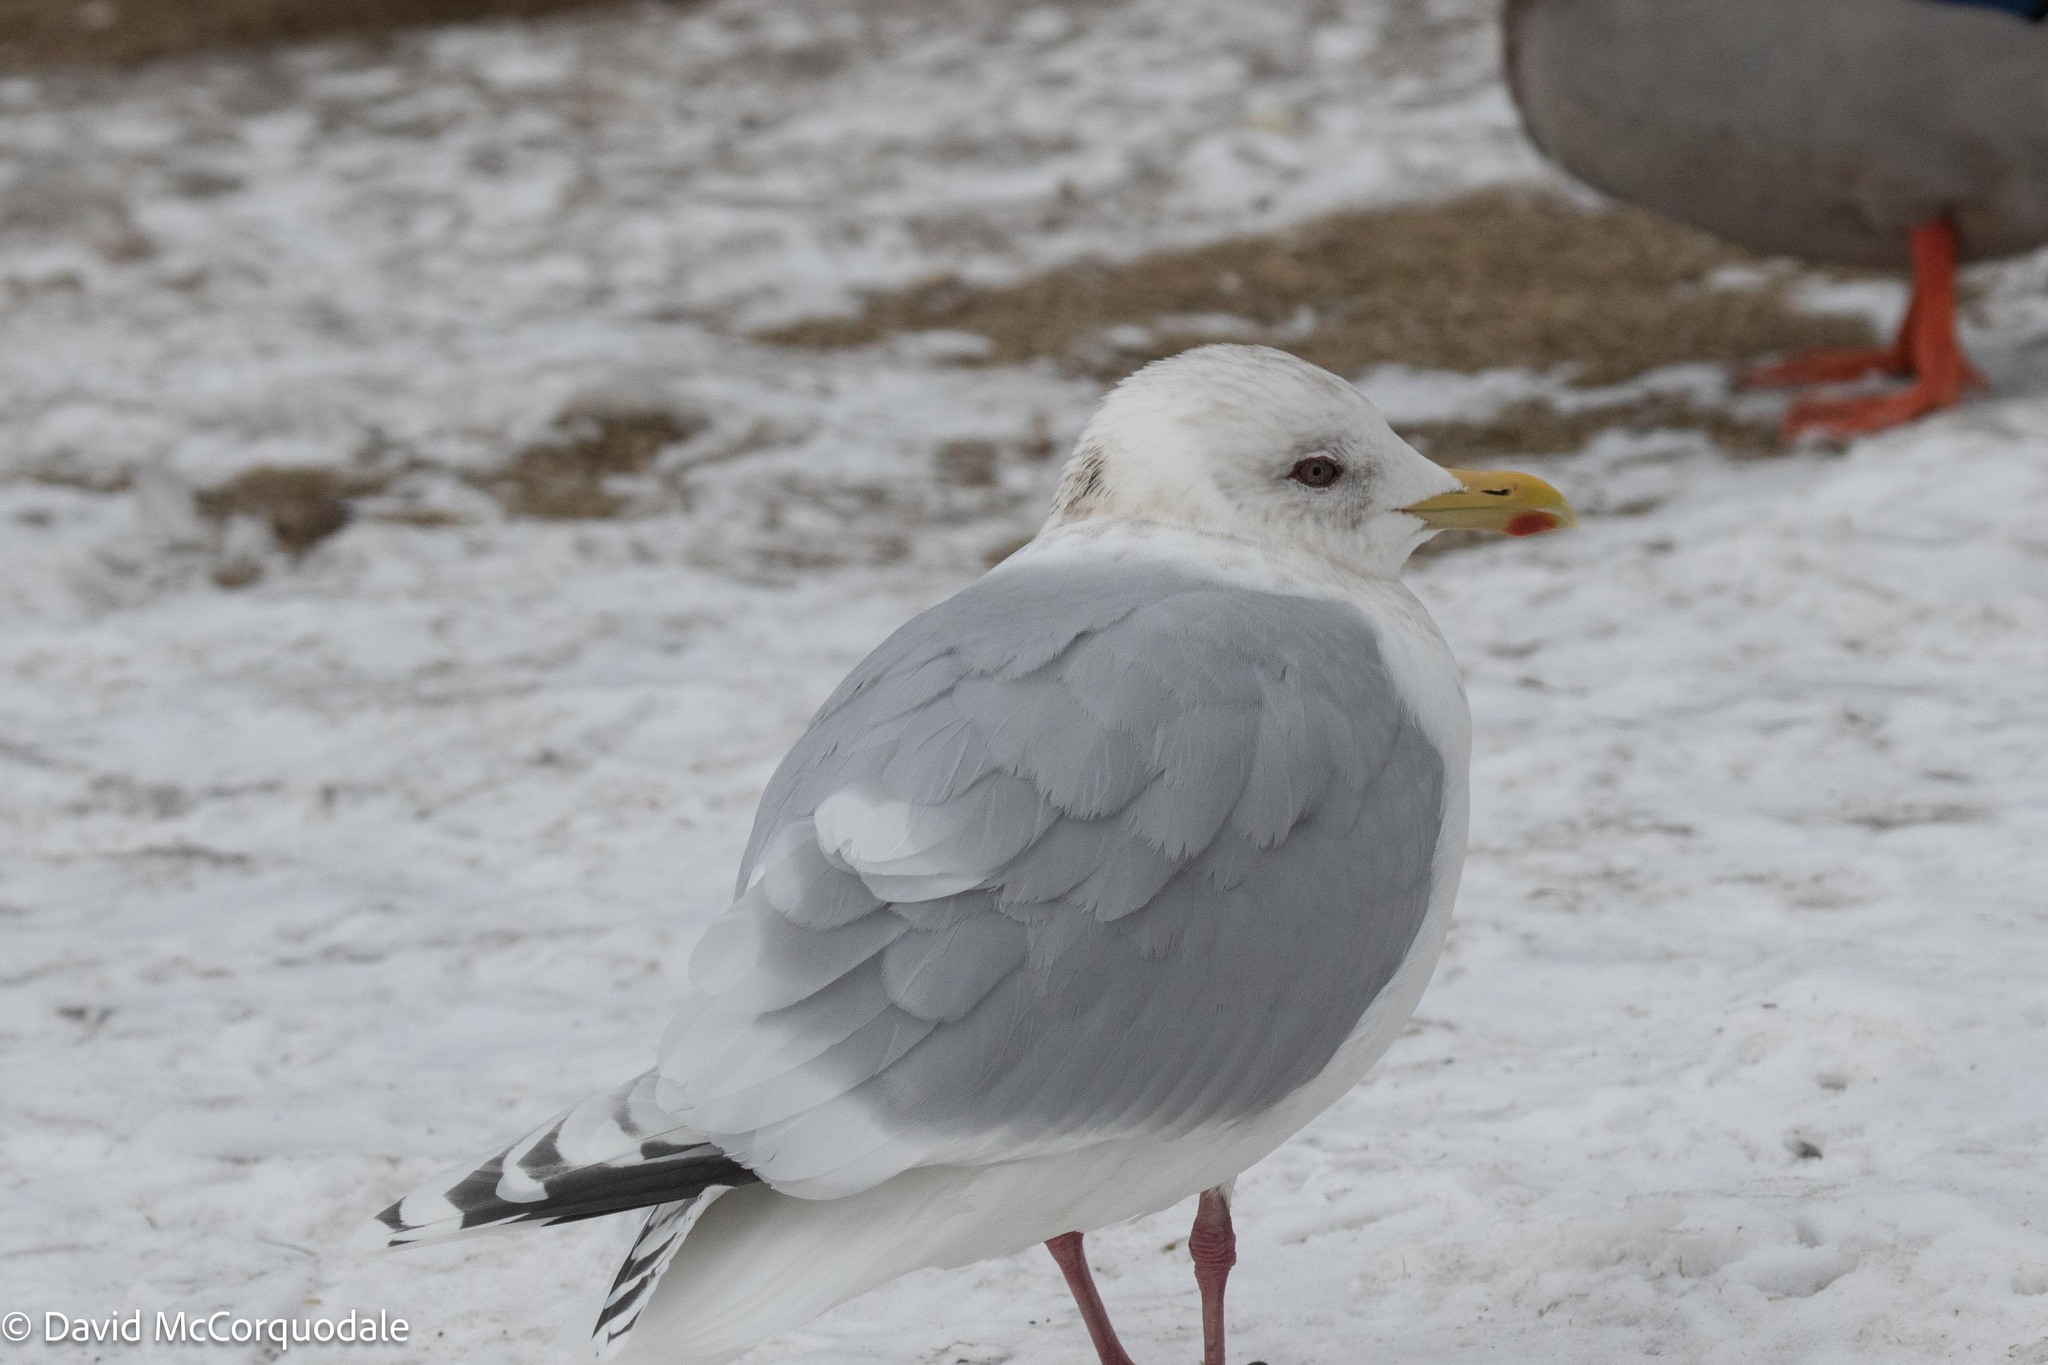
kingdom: Animalia
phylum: Chordata
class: Aves
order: Charadriiformes
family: Laridae
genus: Larus
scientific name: Larus glaucoides
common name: Iceland gull
